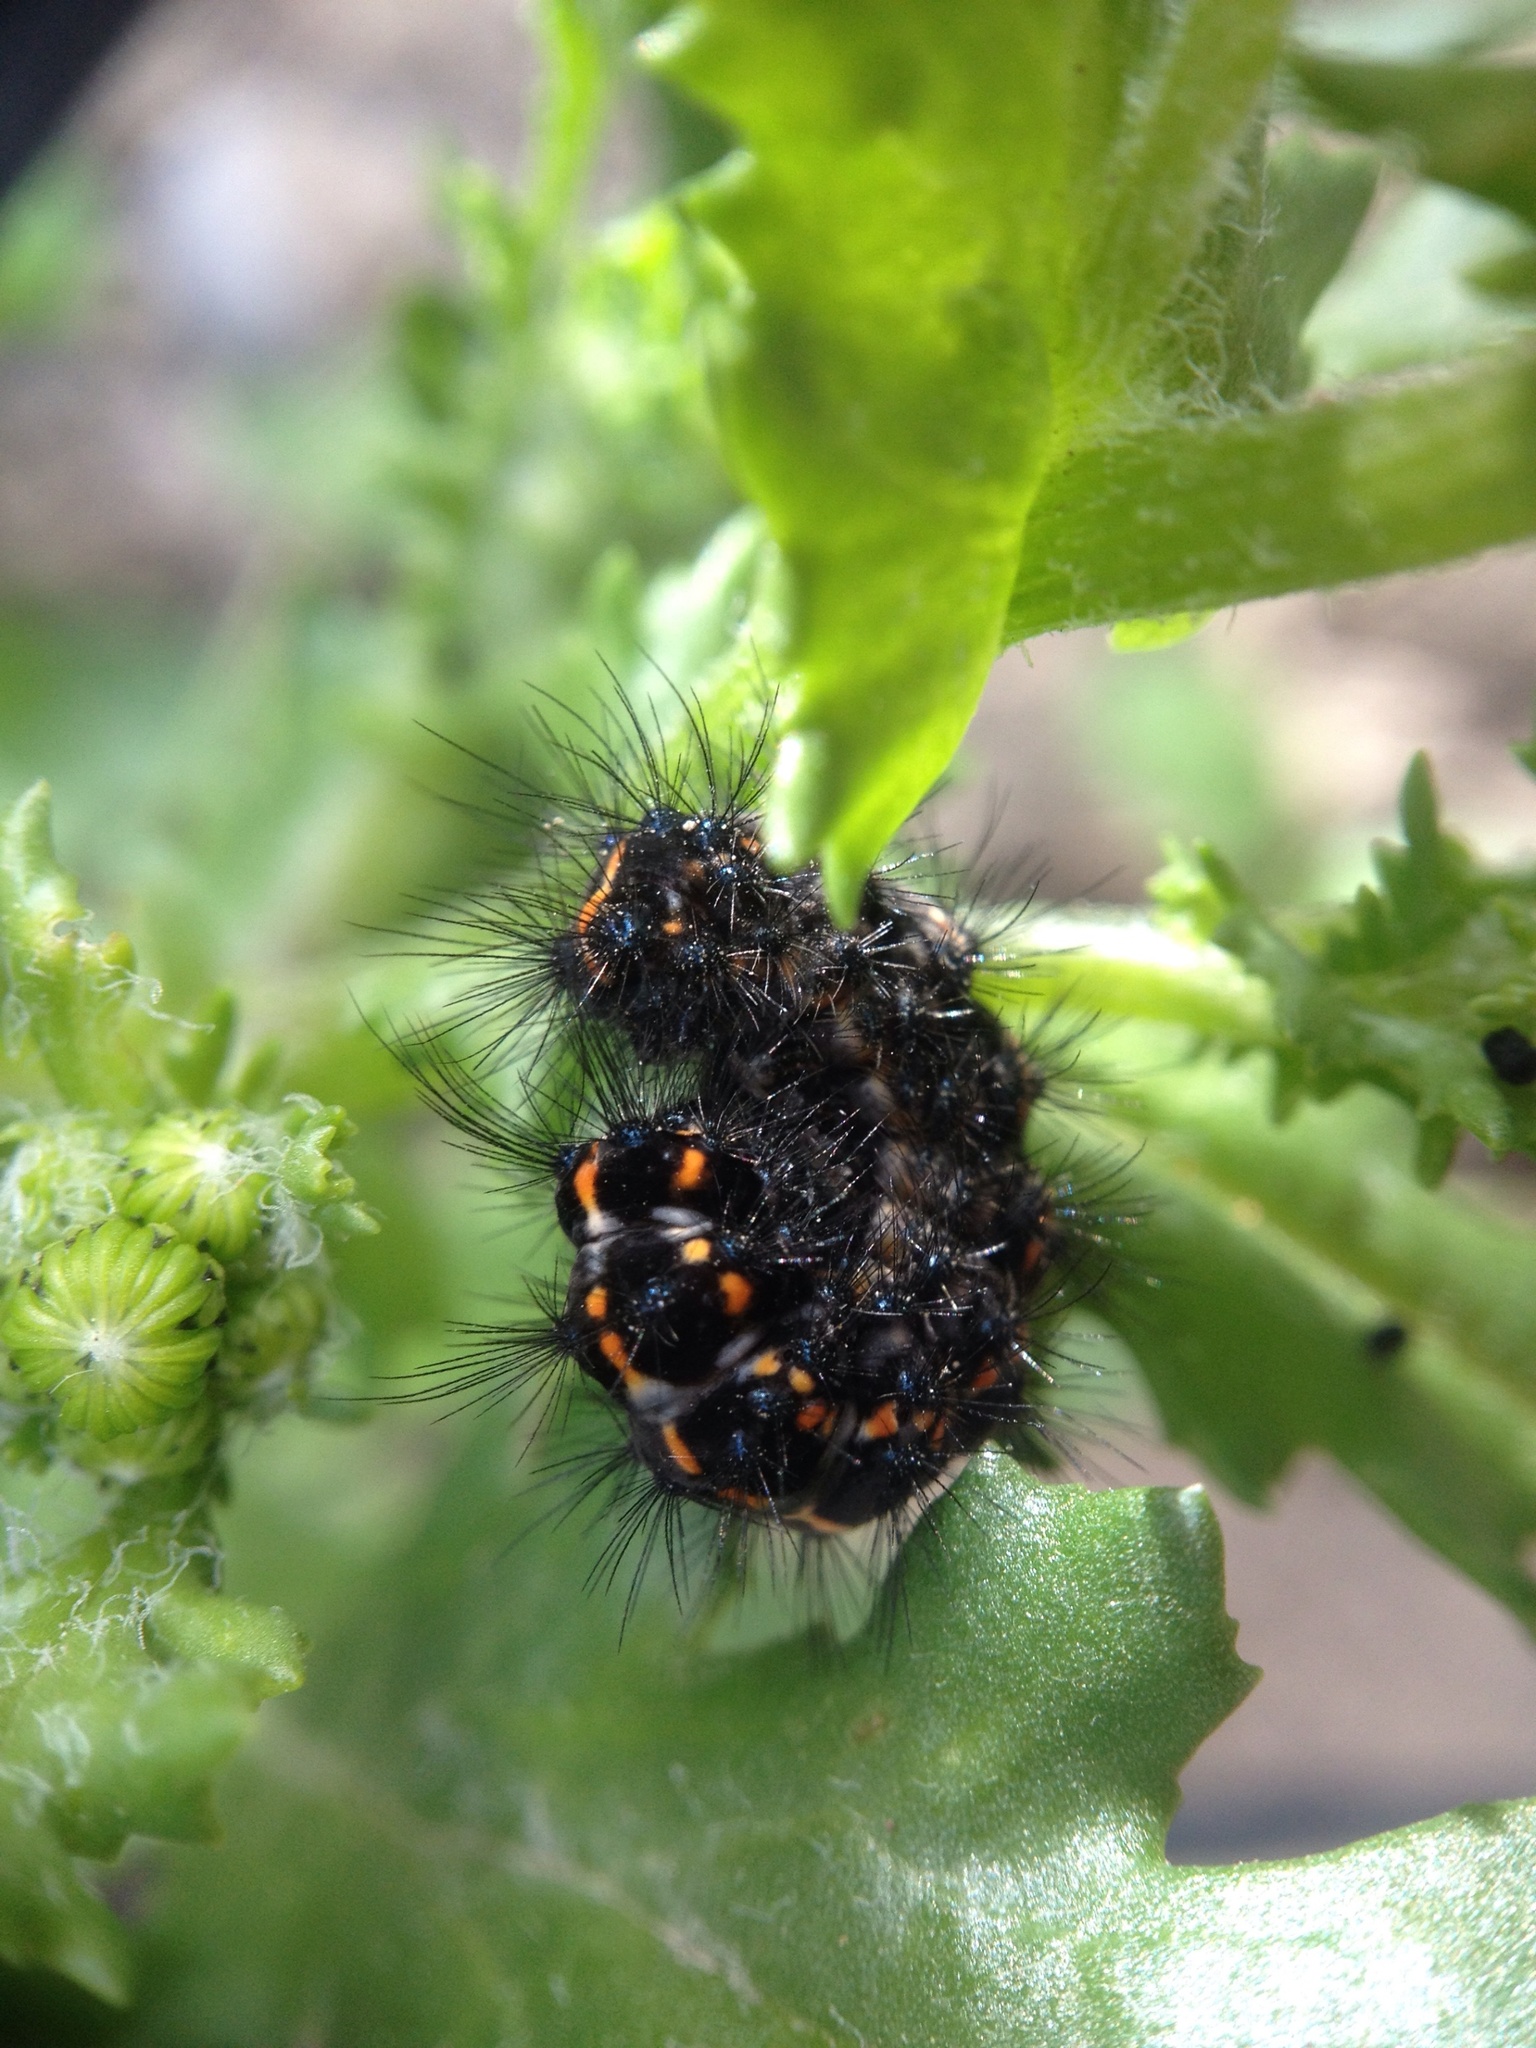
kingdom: Animalia
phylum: Arthropoda
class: Insecta
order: Lepidoptera
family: Erebidae
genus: Nyctemera
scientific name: Nyctemera annulatum
